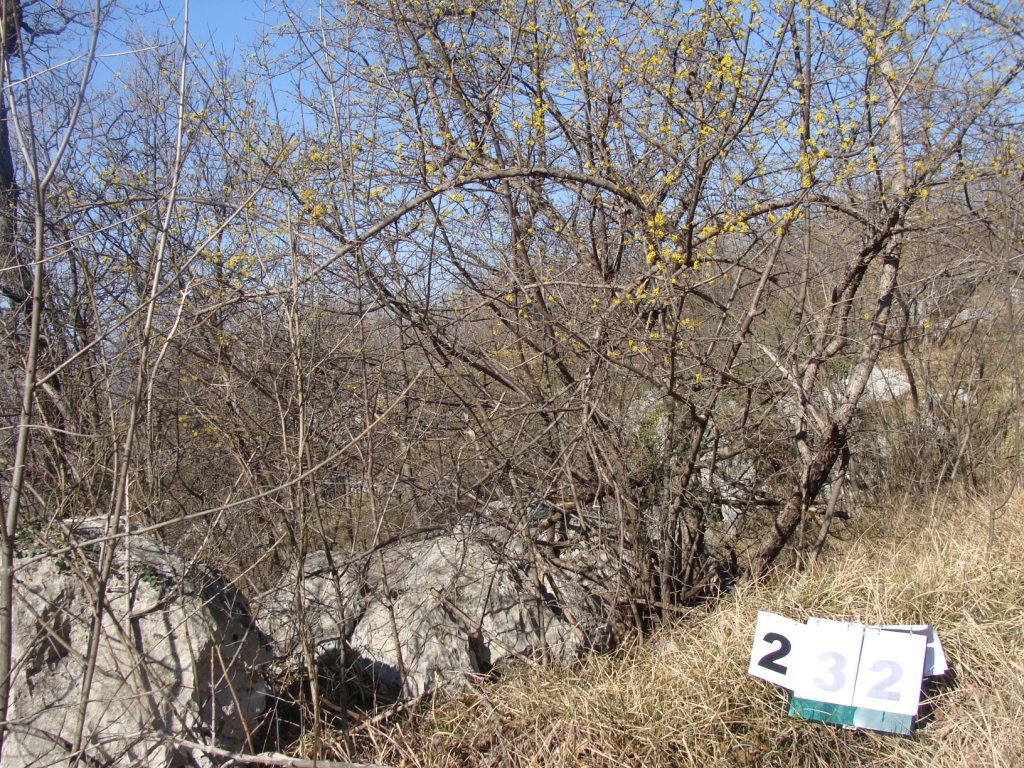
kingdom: Plantae
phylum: Tracheophyta
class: Magnoliopsida
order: Cornales
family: Cornaceae
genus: Cornus
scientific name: Cornus mas
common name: Cornelian-cherry
